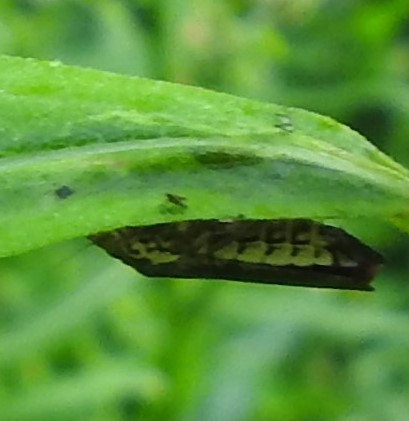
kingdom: Animalia
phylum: Arthropoda
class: Insecta
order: Hemiptera
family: Cicadellidae
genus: Paraulacizes
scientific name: Paraulacizes irrorata
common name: Speckled sharpshooter
